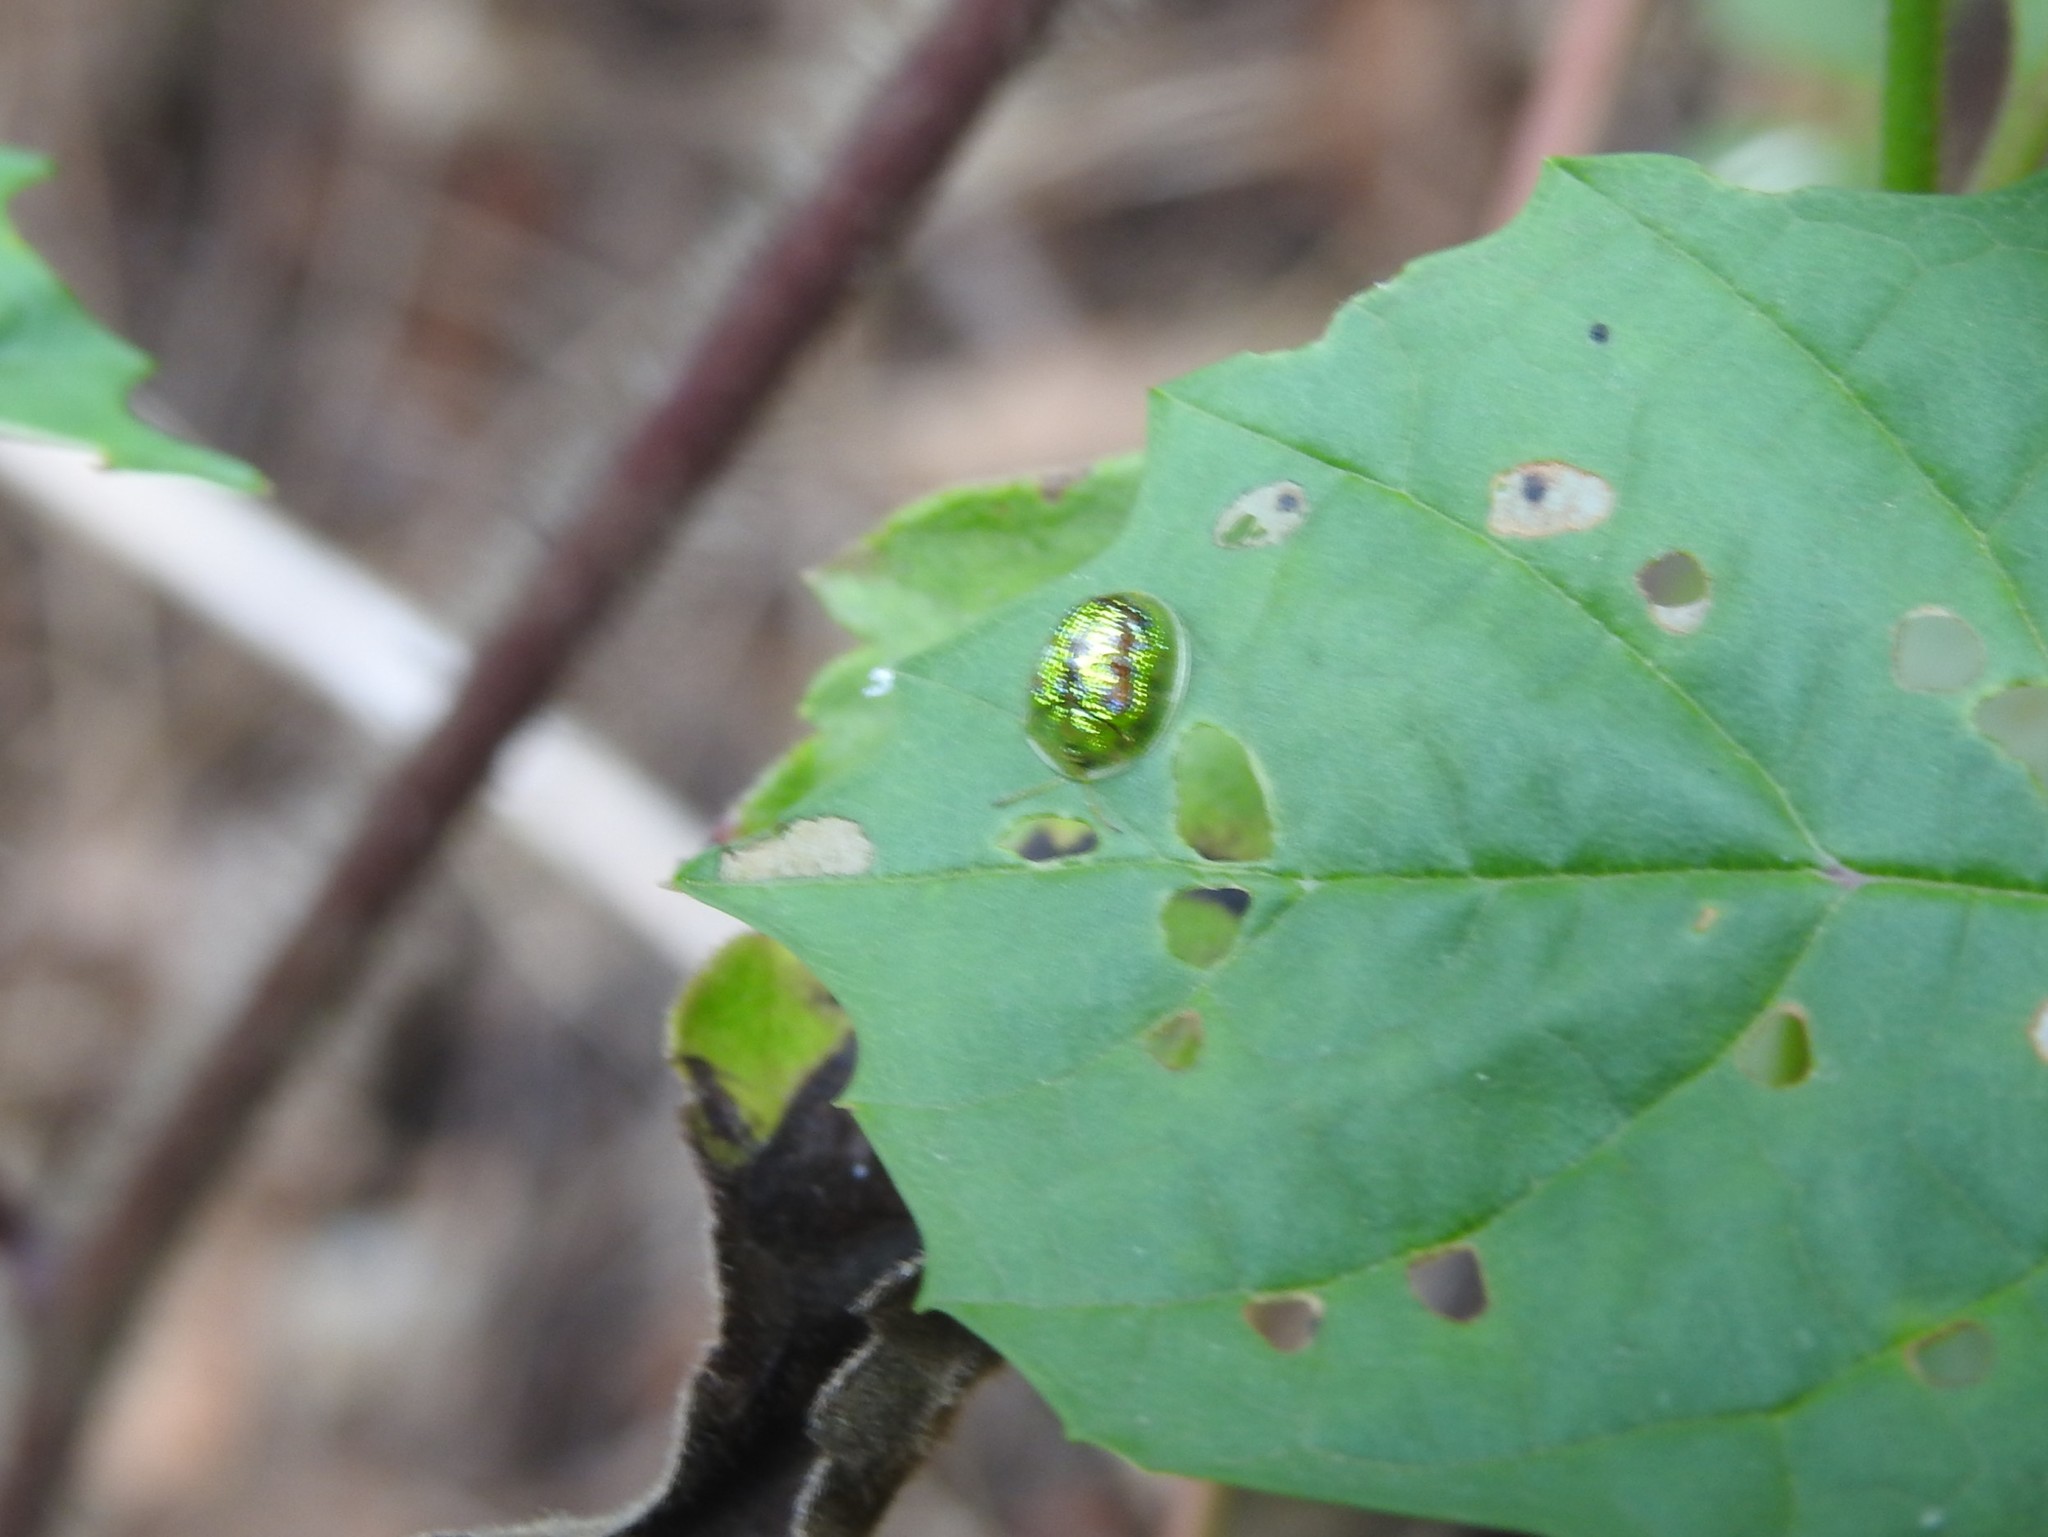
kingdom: Animalia
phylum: Arthropoda
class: Insecta
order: Coleoptera
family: Chrysomelidae
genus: Cassida
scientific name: Cassida circumdata
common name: Tortoise beetle
